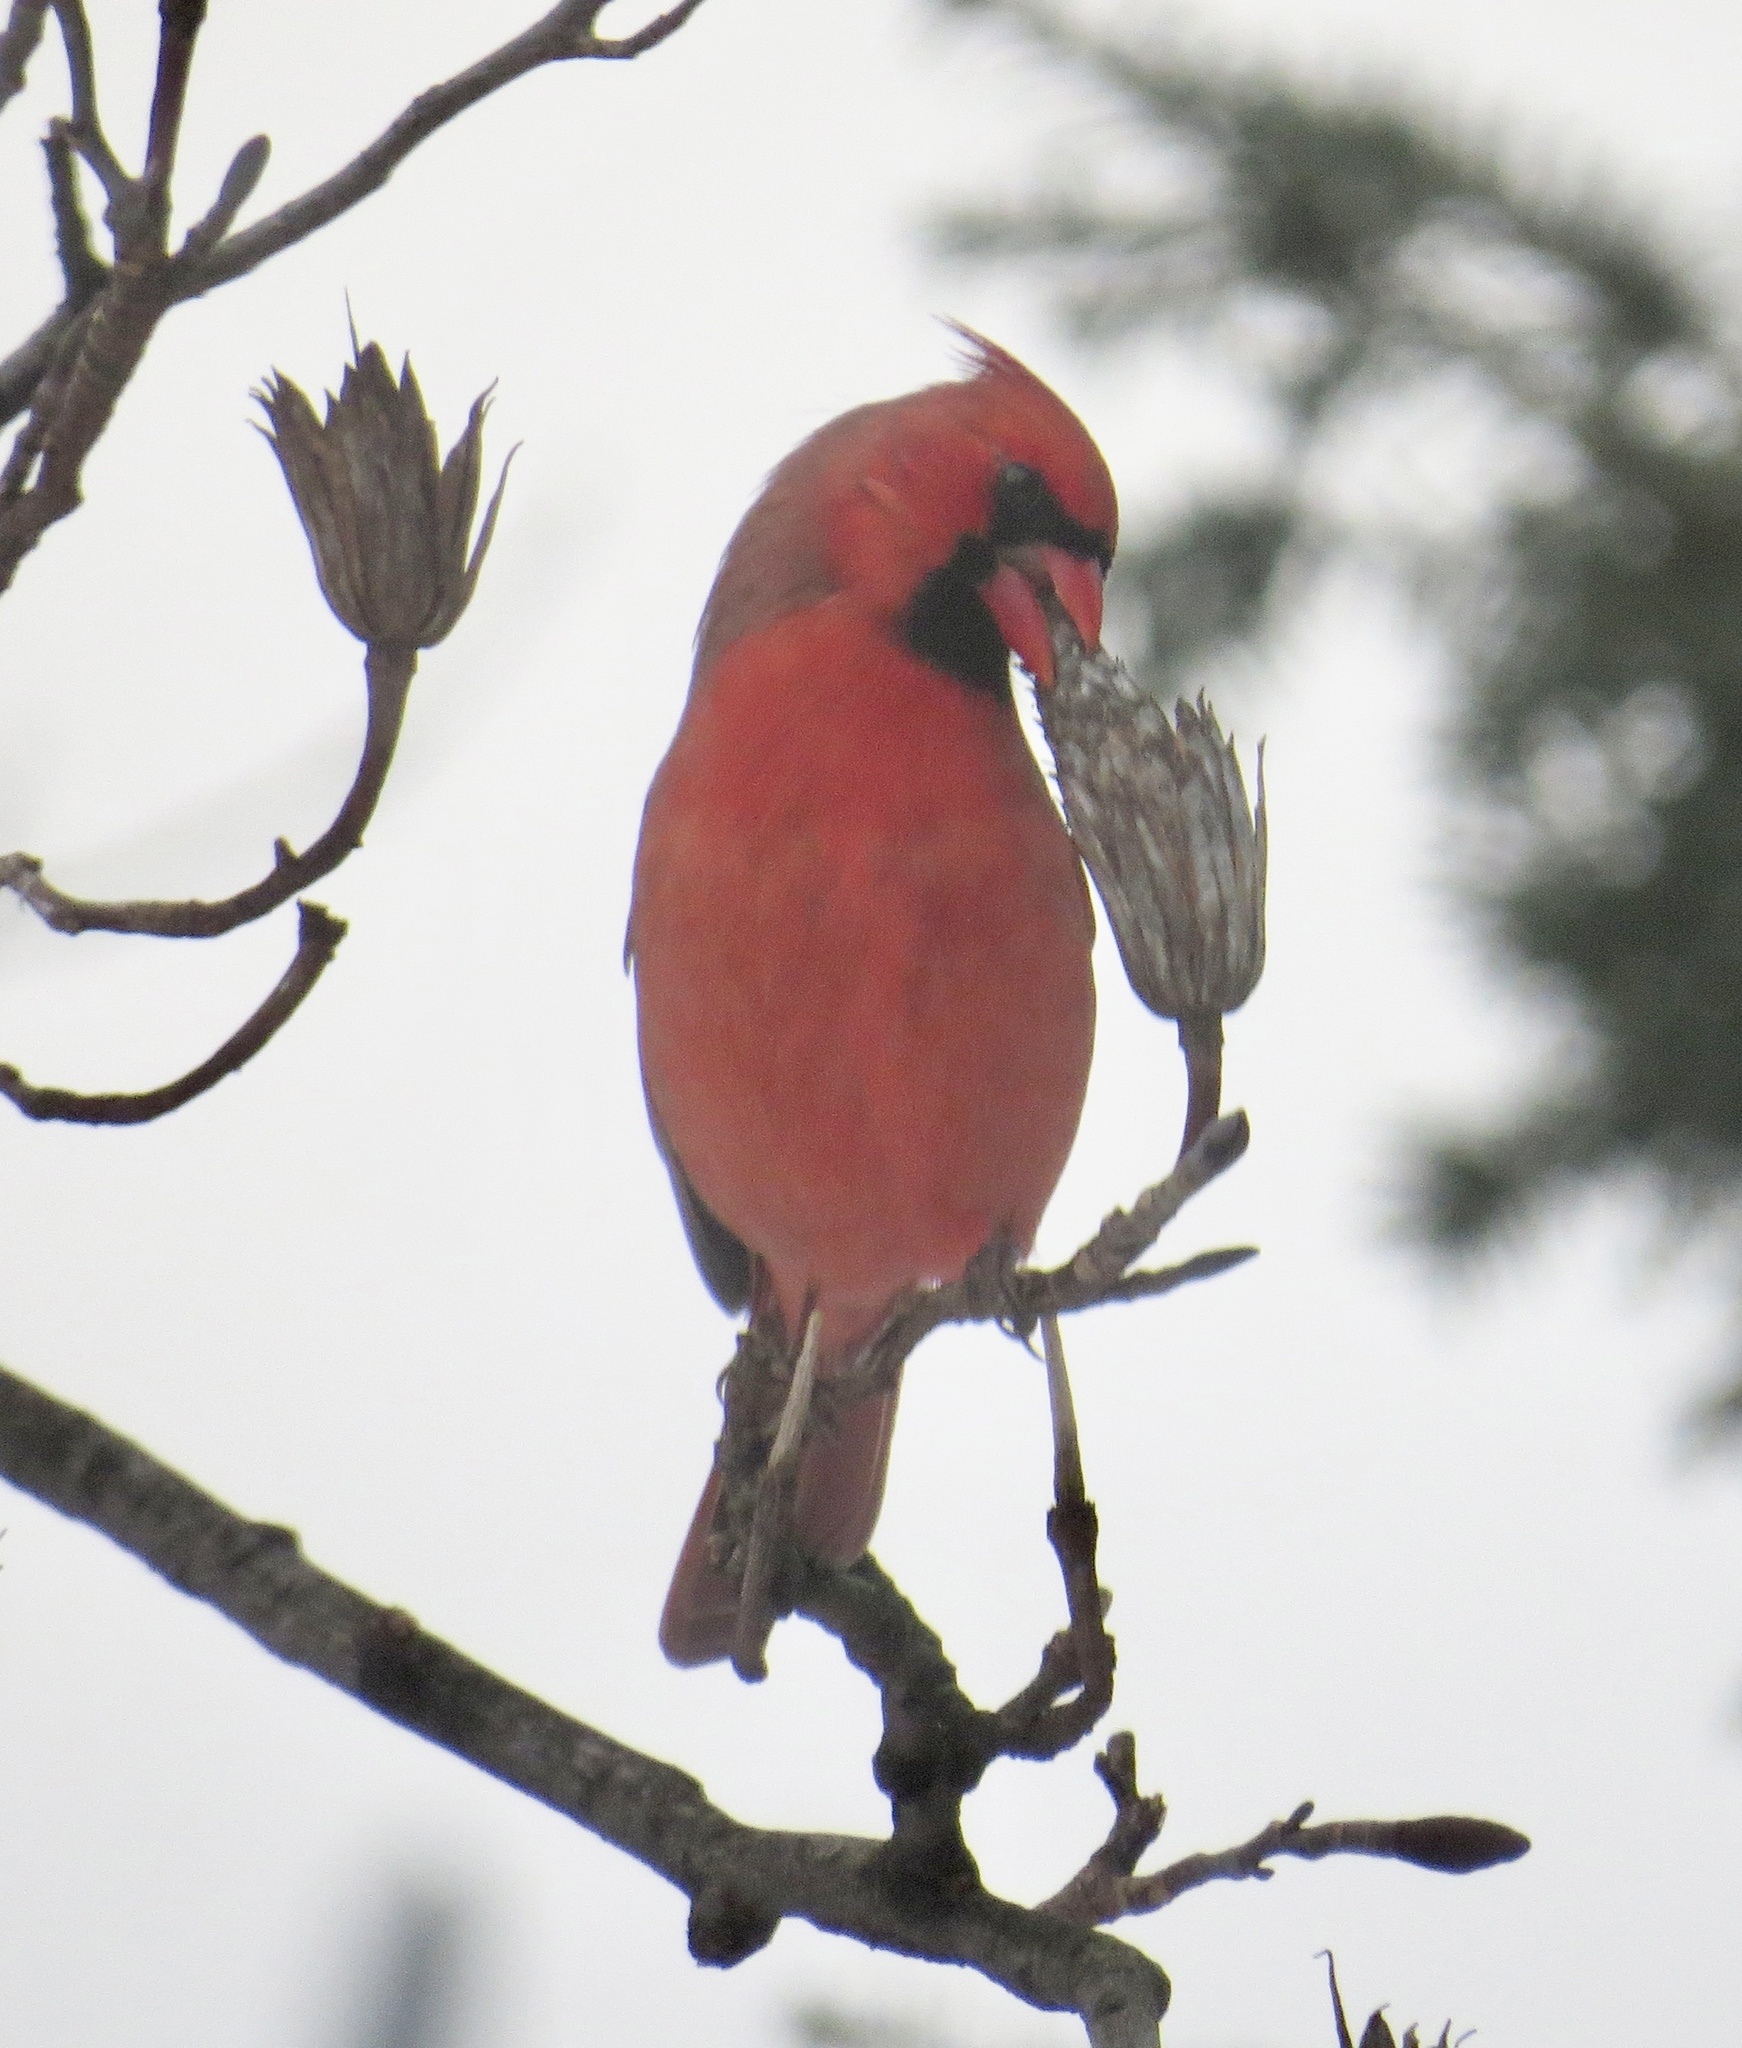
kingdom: Animalia
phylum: Chordata
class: Aves
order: Passeriformes
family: Cardinalidae
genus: Cardinalis
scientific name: Cardinalis cardinalis
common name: Northern cardinal
